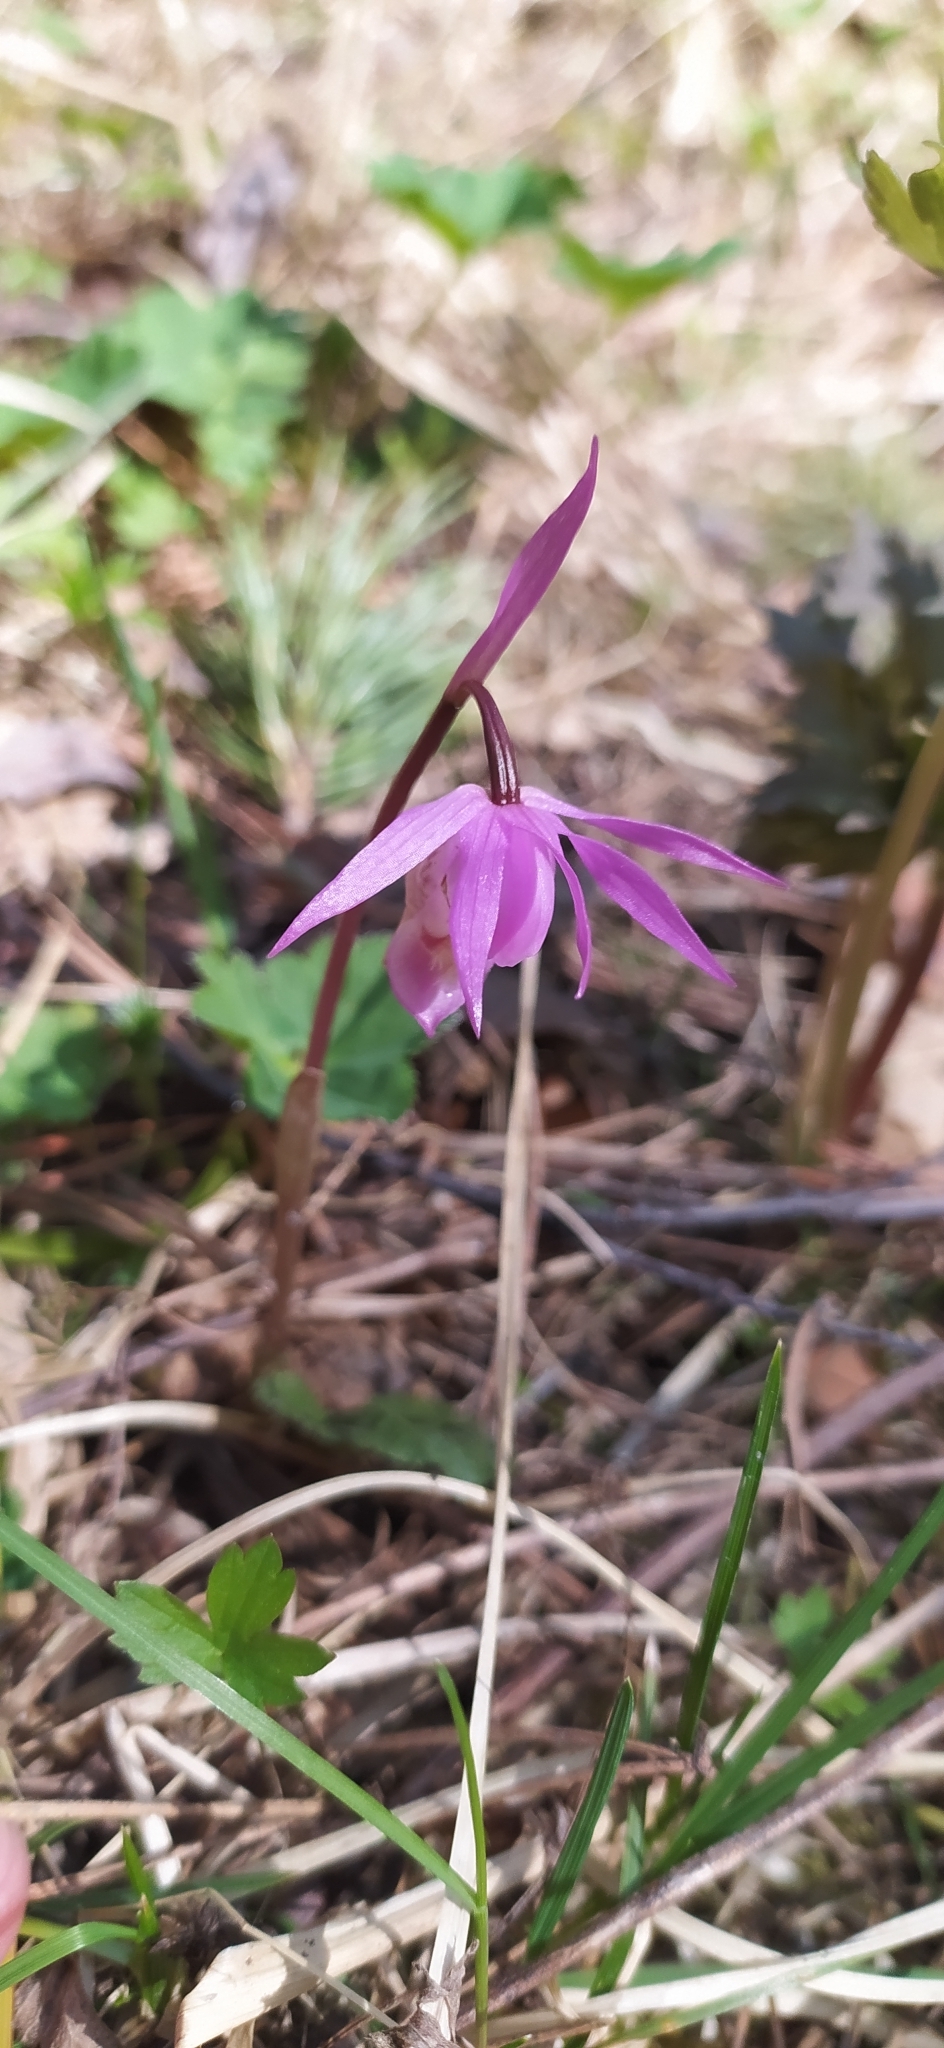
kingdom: Plantae
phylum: Tracheophyta
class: Liliopsida
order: Asparagales
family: Orchidaceae
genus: Calypso
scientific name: Calypso bulbosa
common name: Calypso
